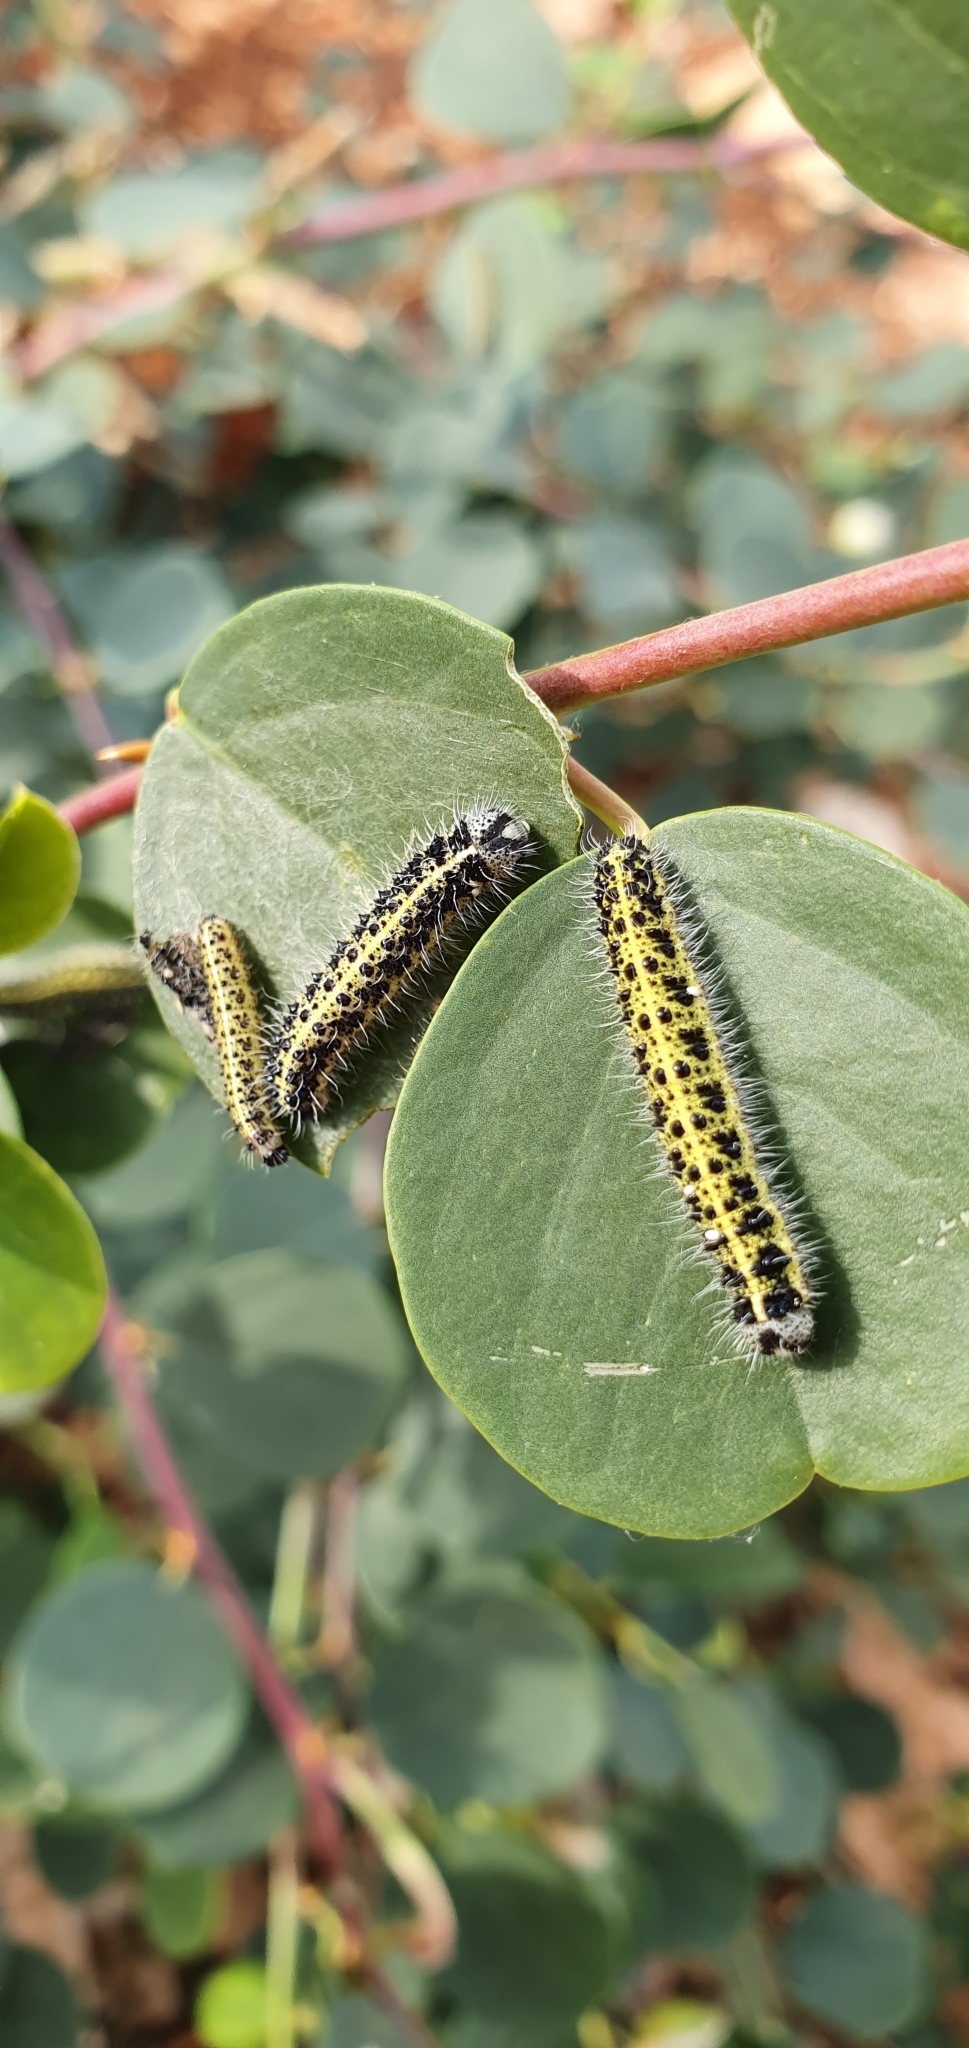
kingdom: Animalia
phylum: Arthropoda
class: Insecta
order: Lepidoptera
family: Pieridae
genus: Pieris
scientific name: Pieris brassicae
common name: Large white
